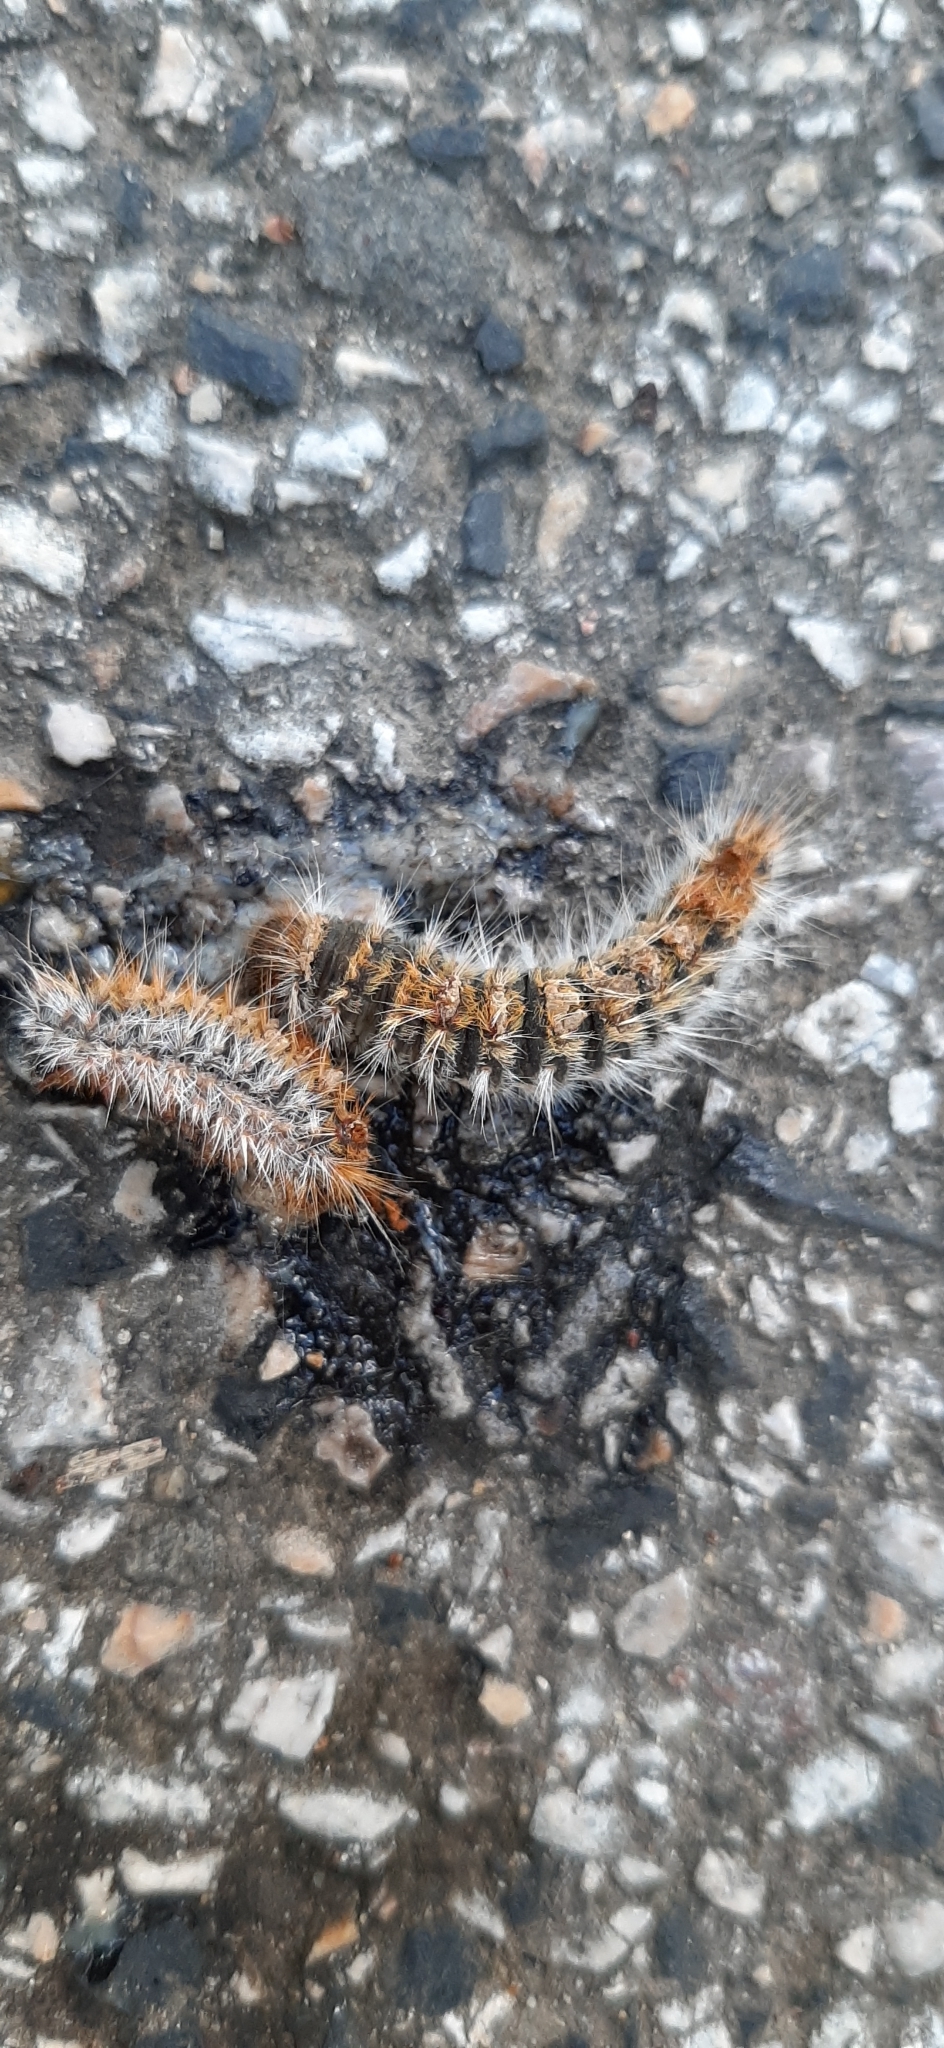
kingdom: Animalia
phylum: Arthropoda
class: Insecta
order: Lepidoptera
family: Notodontidae
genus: Thaumetopoea
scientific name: Thaumetopoea pityocampa
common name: Pine processionary
